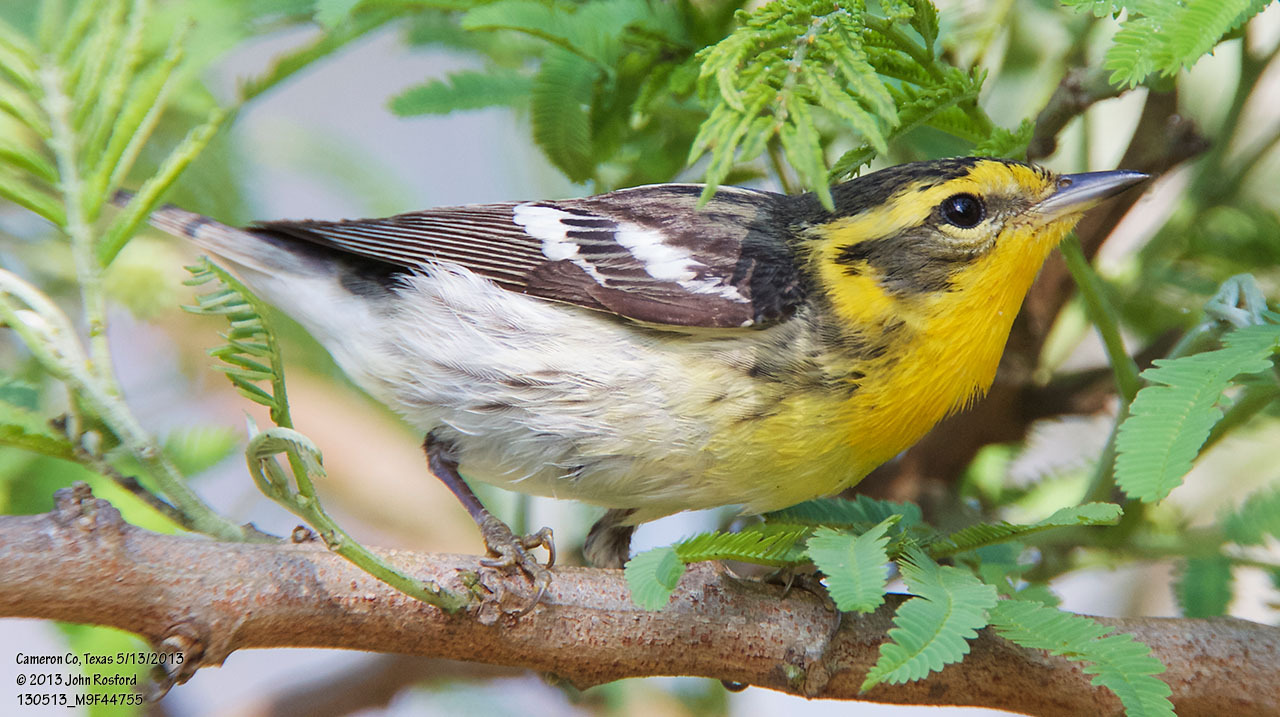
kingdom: Animalia
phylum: Chordata
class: Aves
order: Passeriformes
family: Parulidae
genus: Setophaga
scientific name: Setophaga fusca
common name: Blackburnian warbler
